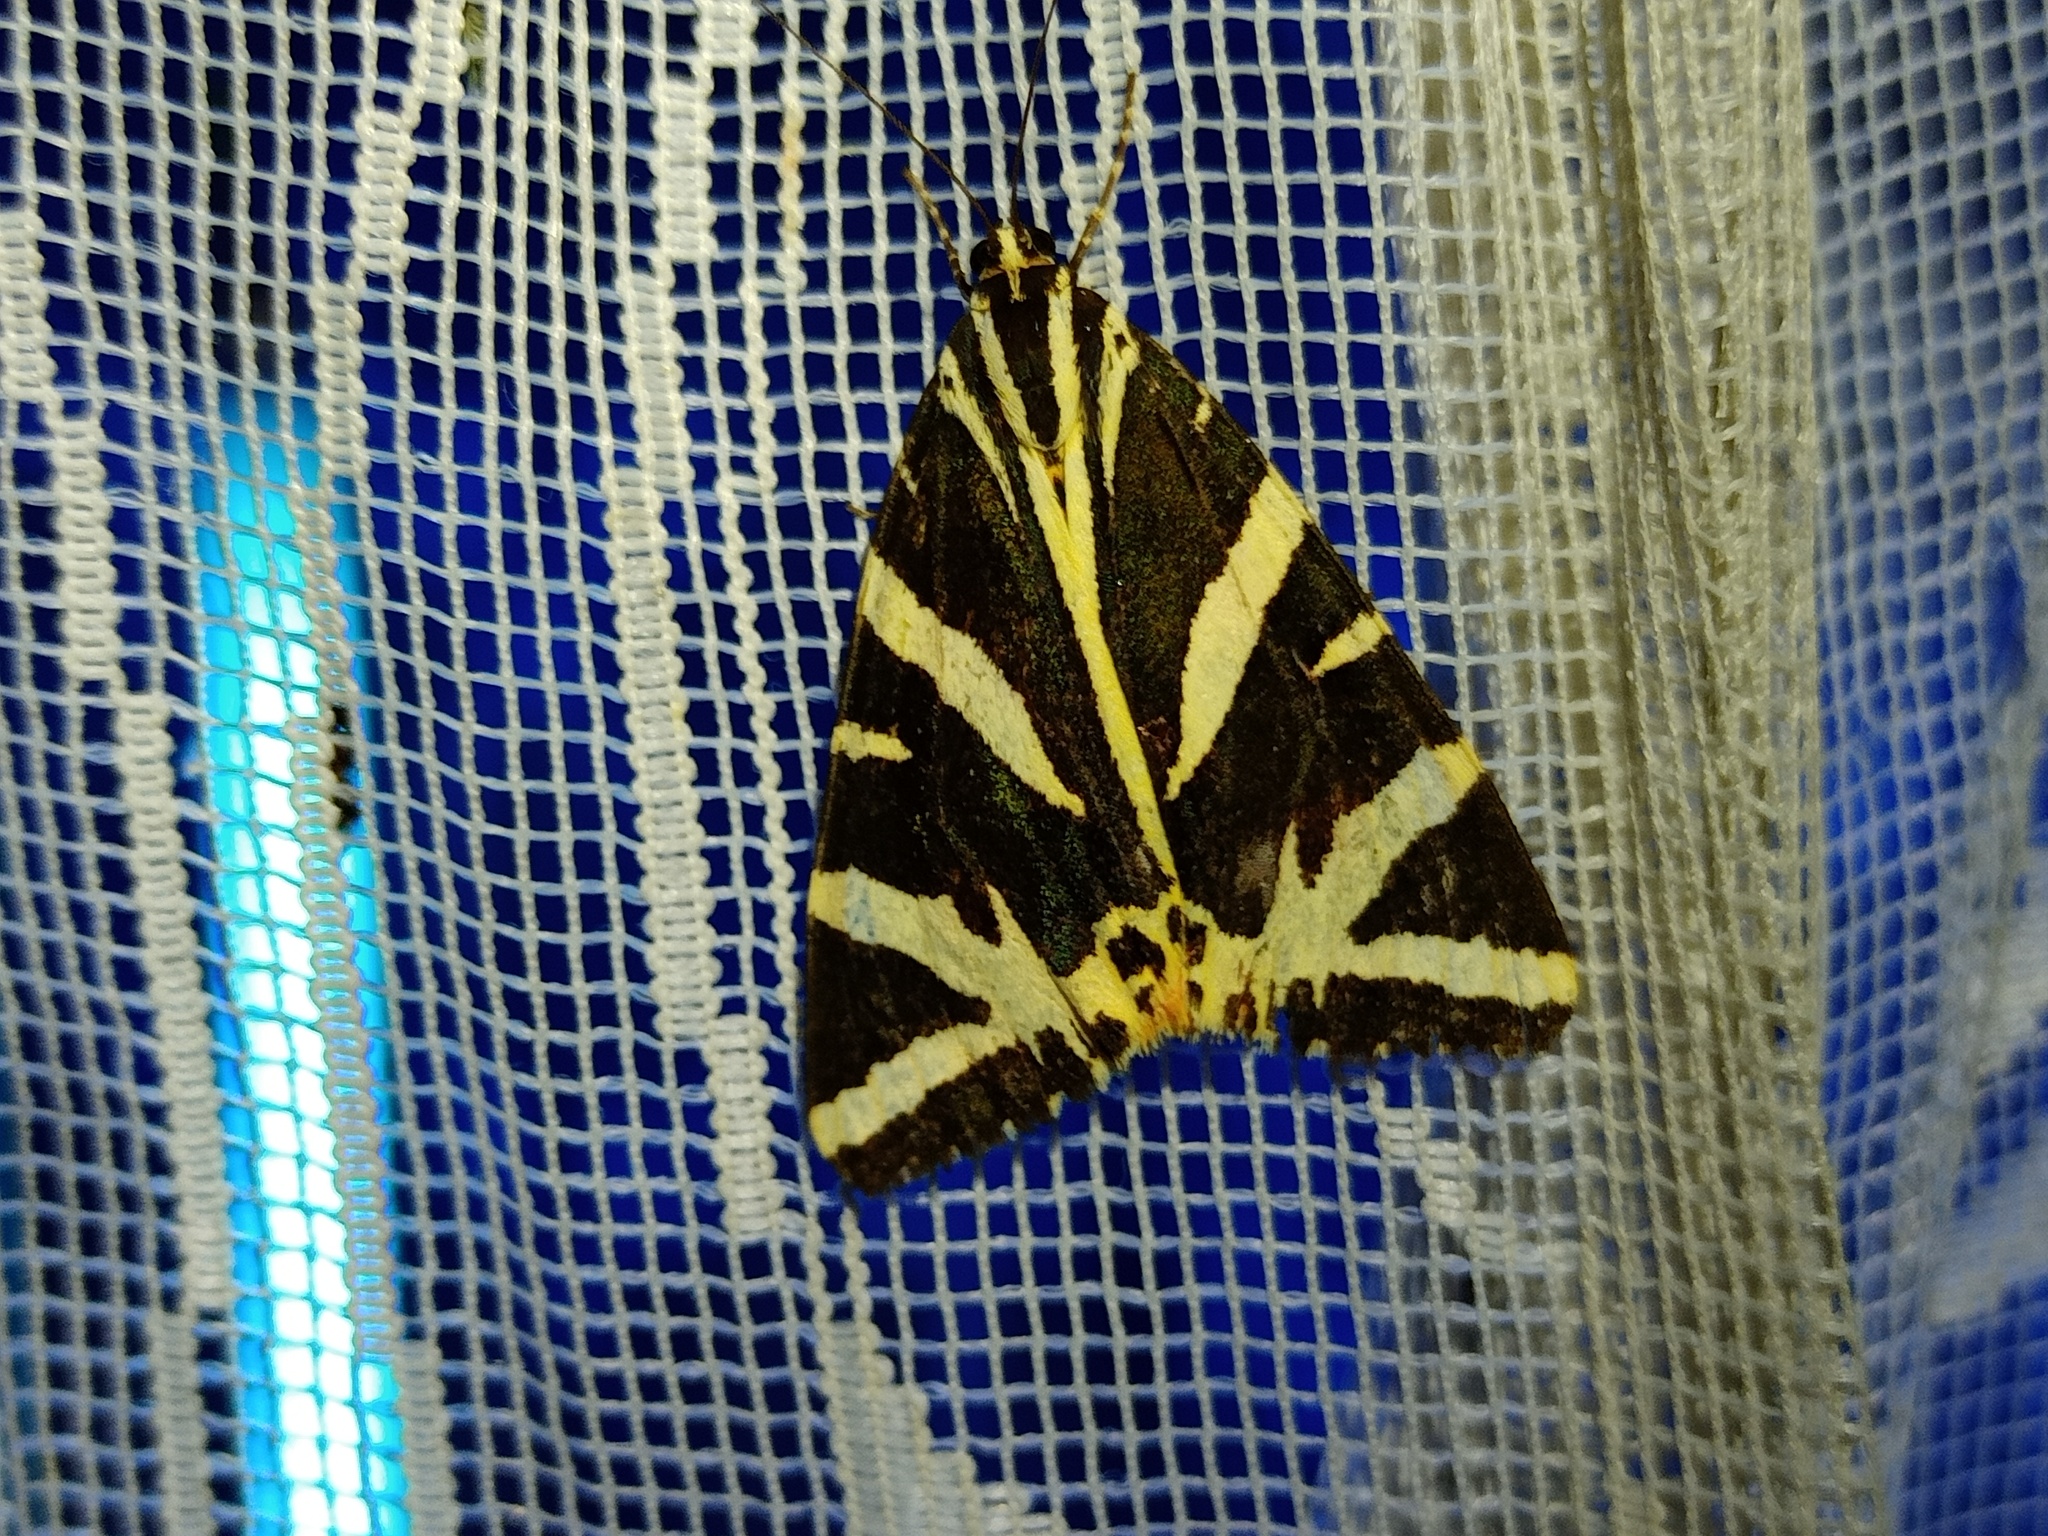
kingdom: Animalia
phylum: Arthropoda
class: Insecta
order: Lepidoptera
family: Erebidae
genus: Euplagia
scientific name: Euplagia quadripunctaria
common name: Jersey tiger
